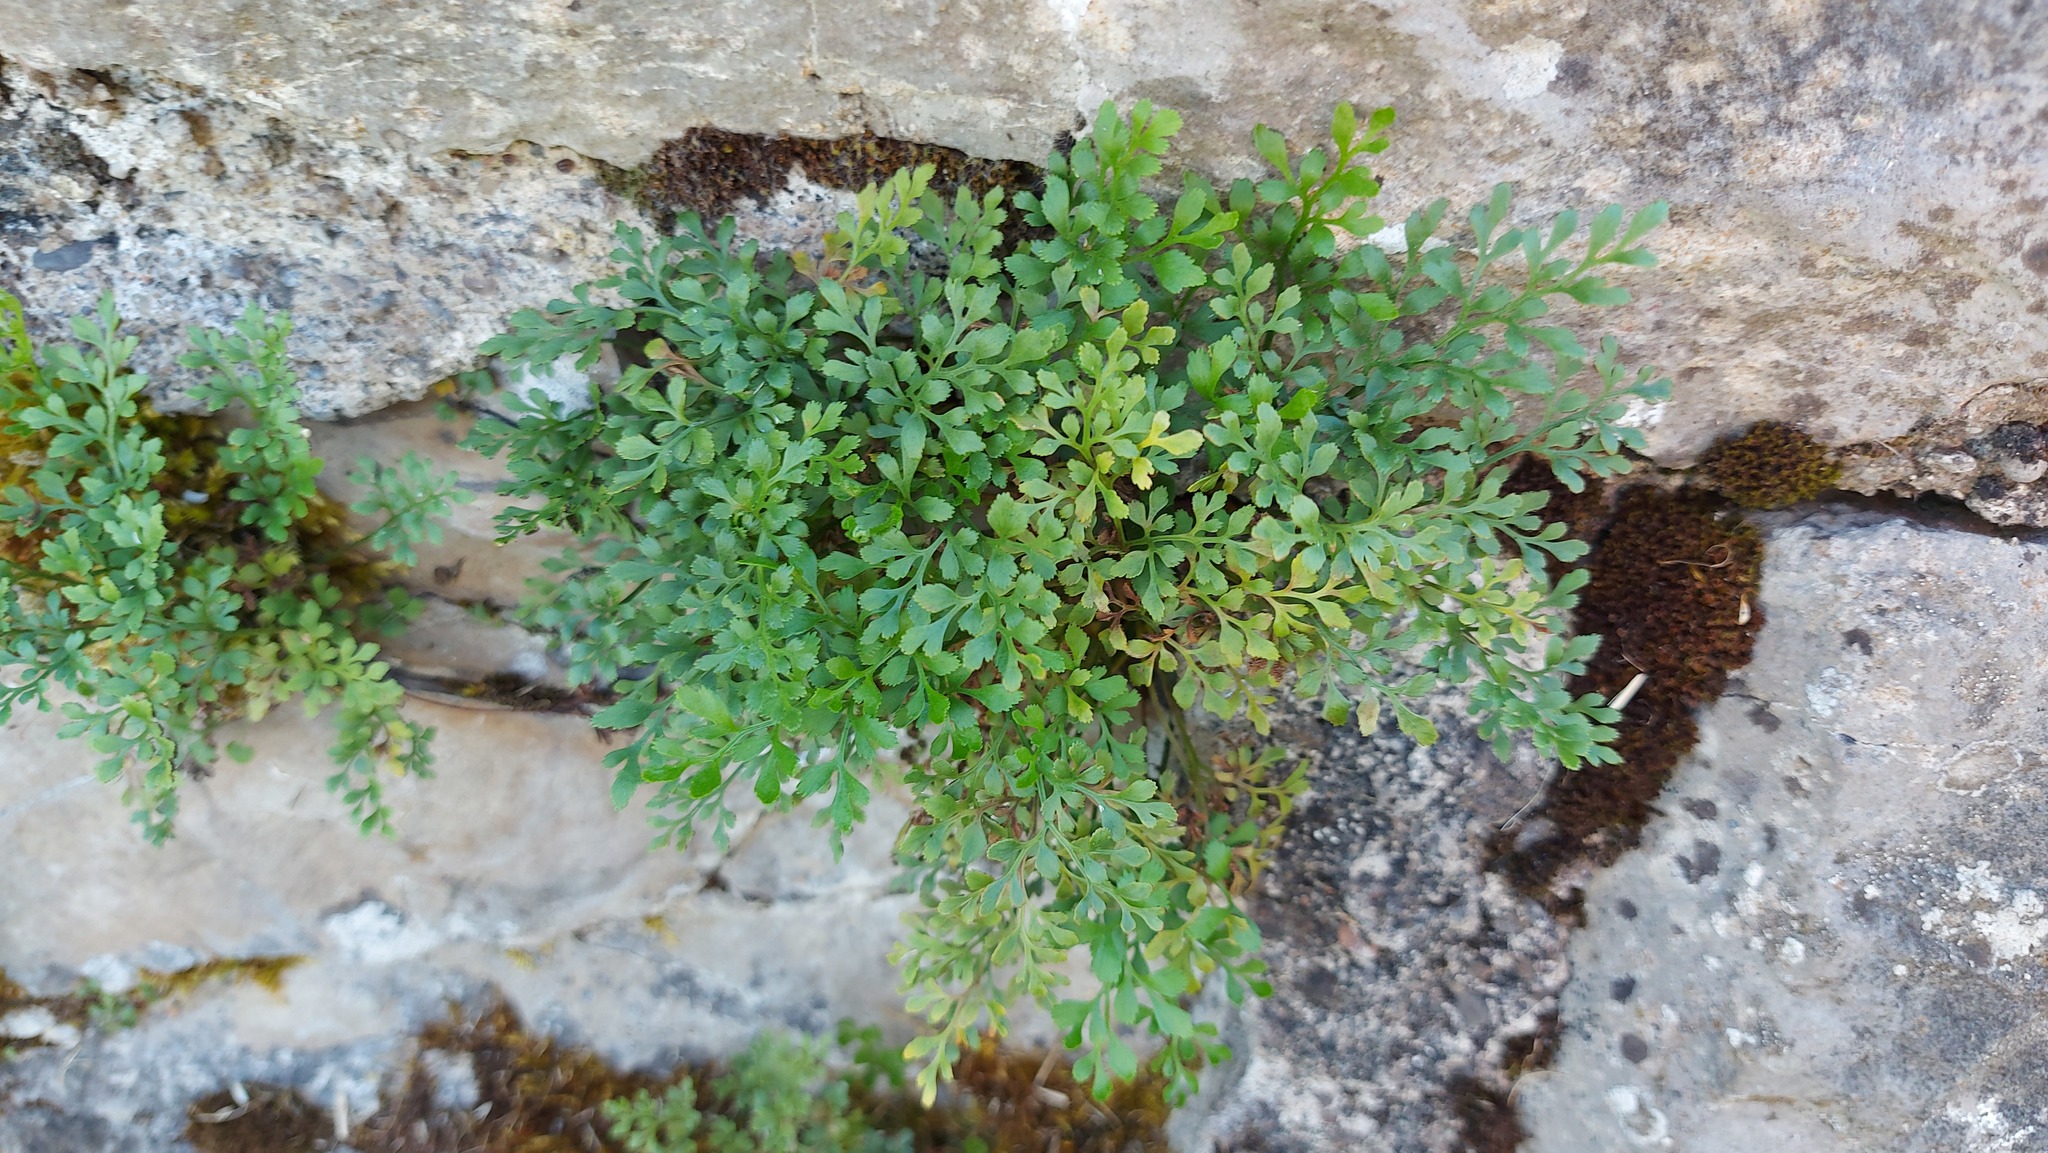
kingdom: Plantae
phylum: Tracheophyta
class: Polypodiopsida
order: Polypodiales
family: Aspleniaceae
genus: Asplenium
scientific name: Asplenium ruta-muraria
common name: Wall-rue
